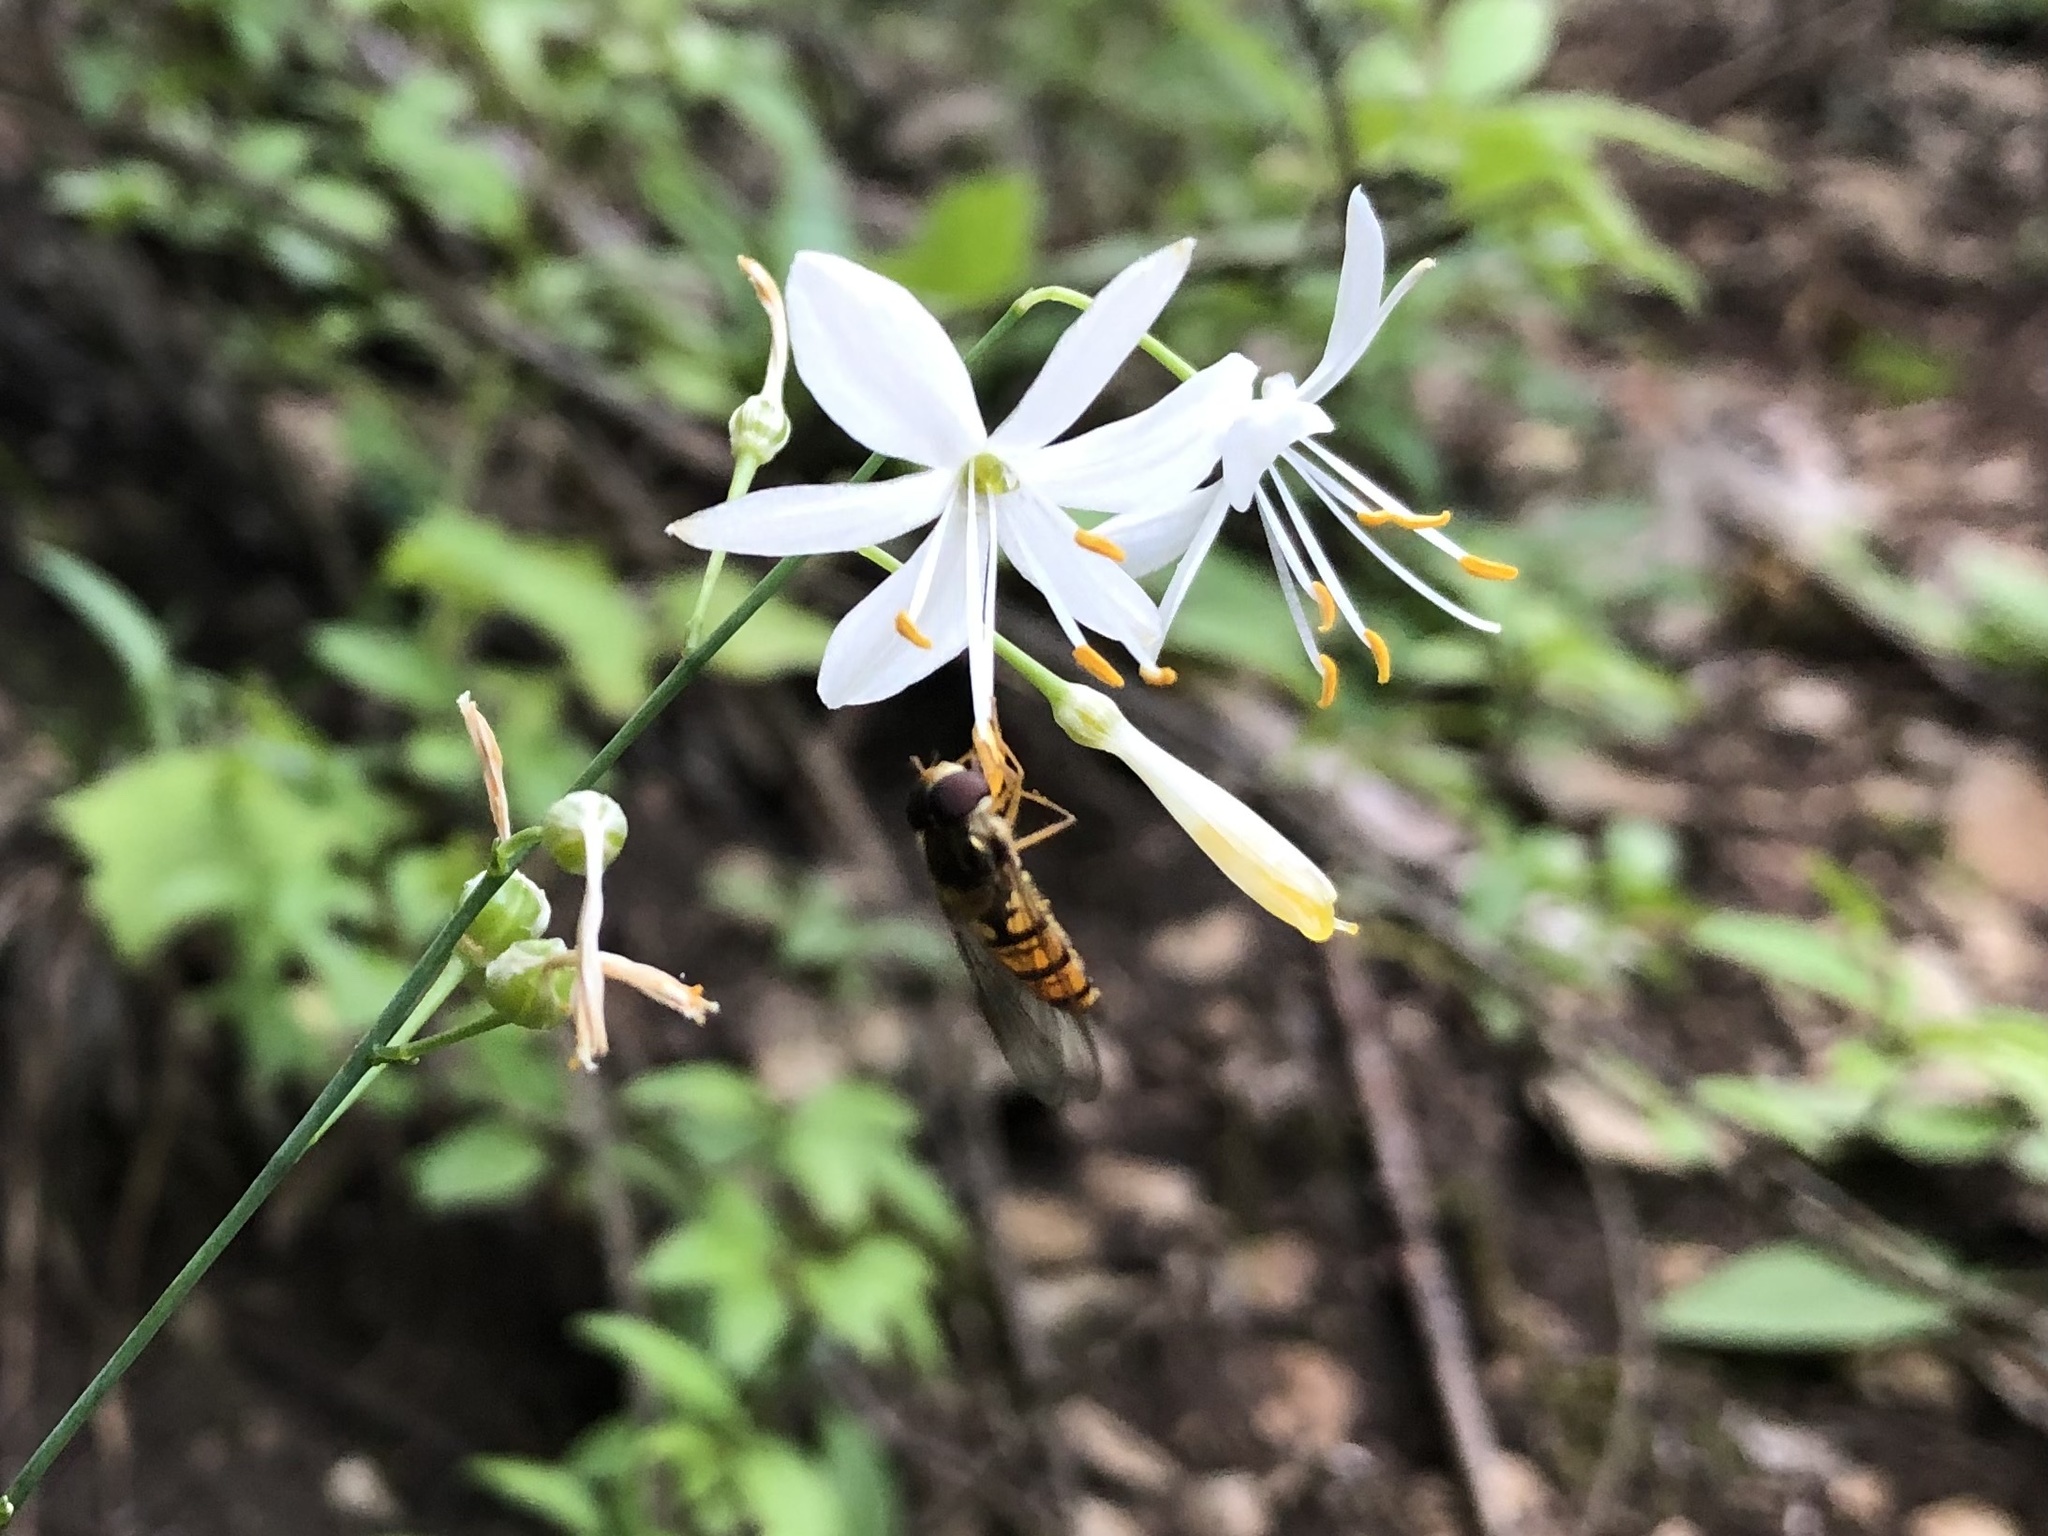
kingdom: Animalia
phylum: Arthropoda
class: Insecta
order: Diptera
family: Syrphidae
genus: Episyrphus
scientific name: Episyrphus balteatus
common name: Marmalade hoverfly
